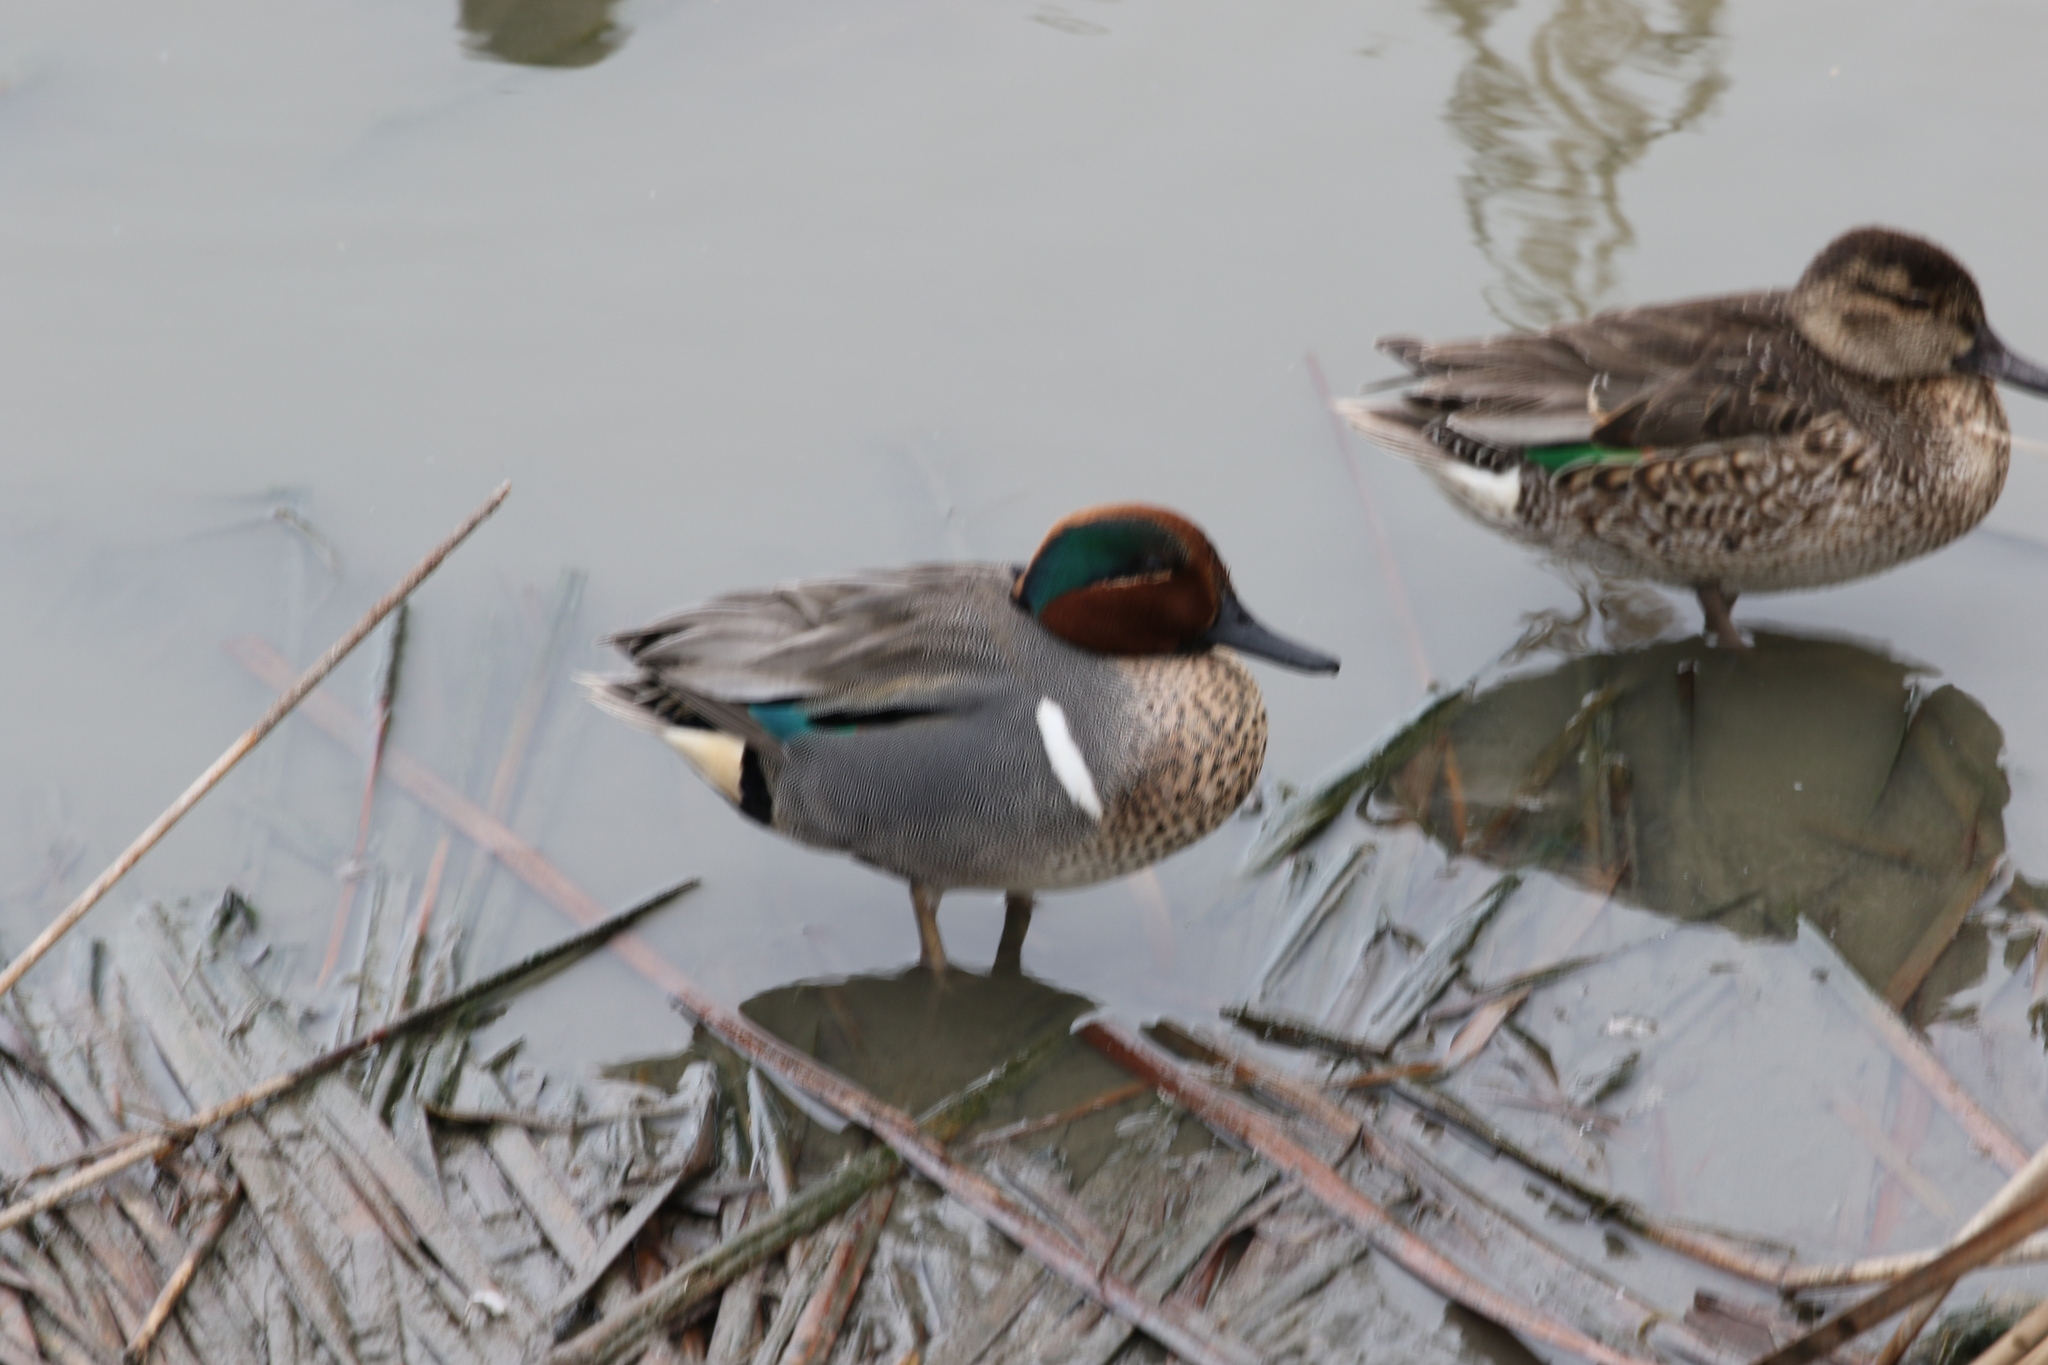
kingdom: Animalia
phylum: Chordata
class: Aves
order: Anseriformes
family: Anatidae
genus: Anas
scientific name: Anas crecca
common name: Eurasian teal
